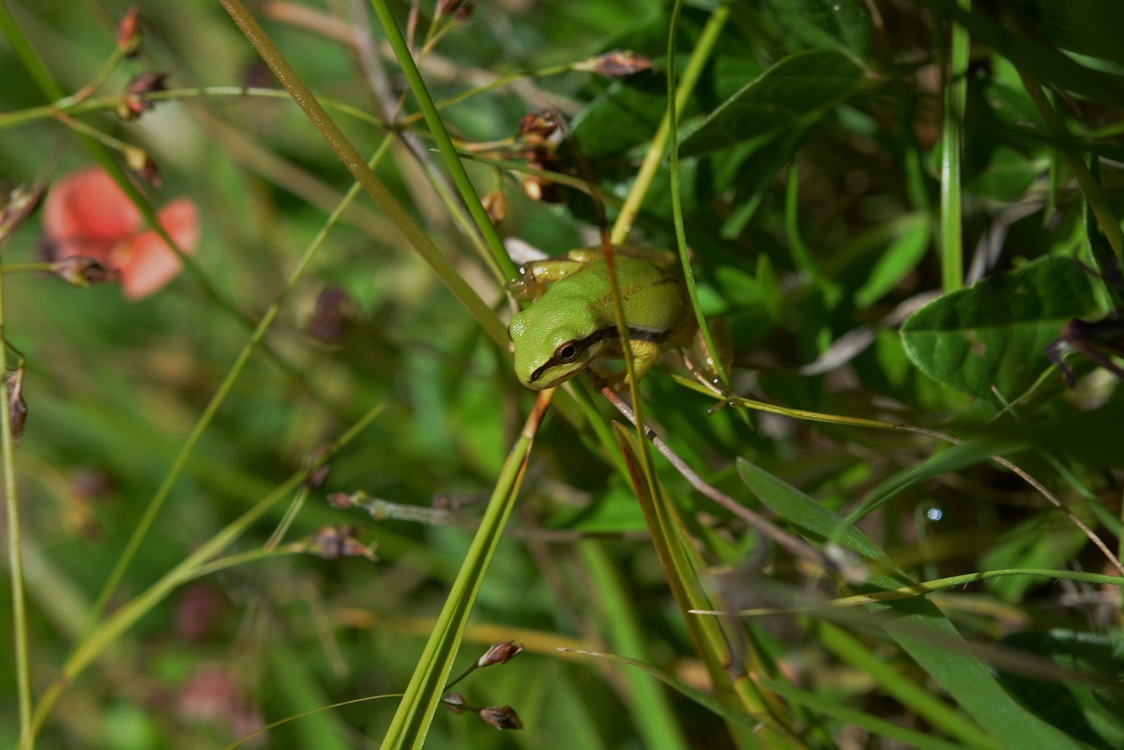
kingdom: Animalia
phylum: Chordata
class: Amphibia
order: Anura
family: Hylidae
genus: Dryophytes
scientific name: Dryophytes walkeri
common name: Walker's treefrog
